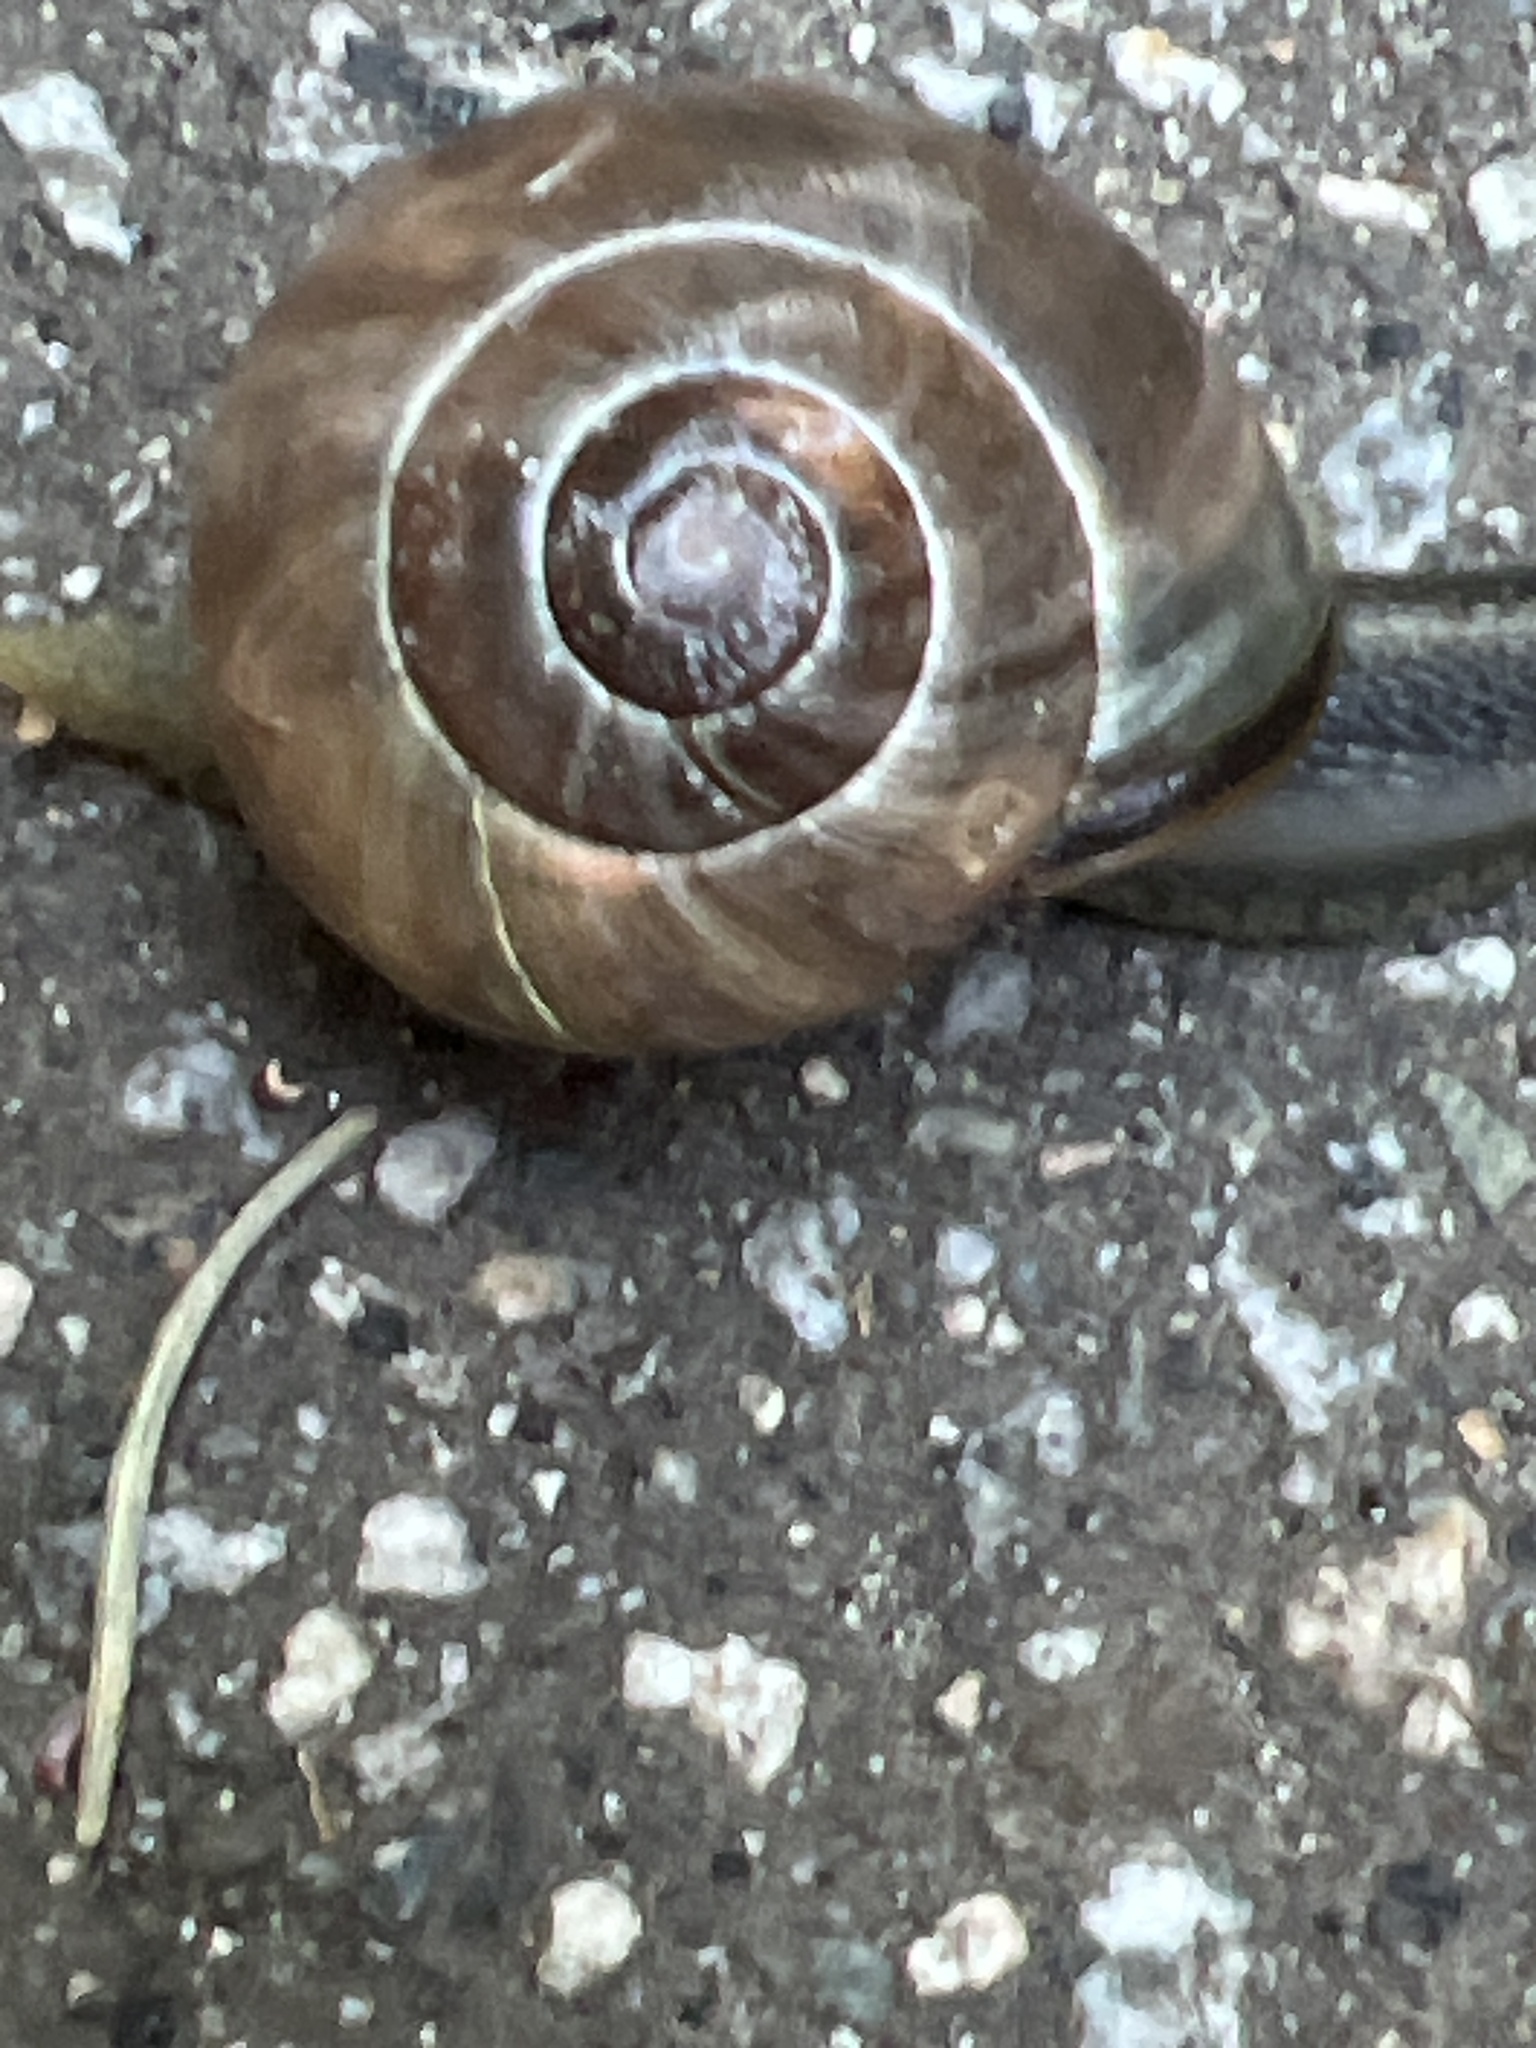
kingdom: Animalia
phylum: Mollusca
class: Gastropoda
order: Stylommatophora
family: Helicidae
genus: Cepaea
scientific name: Cepaea nemoralis
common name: Grovesnail
